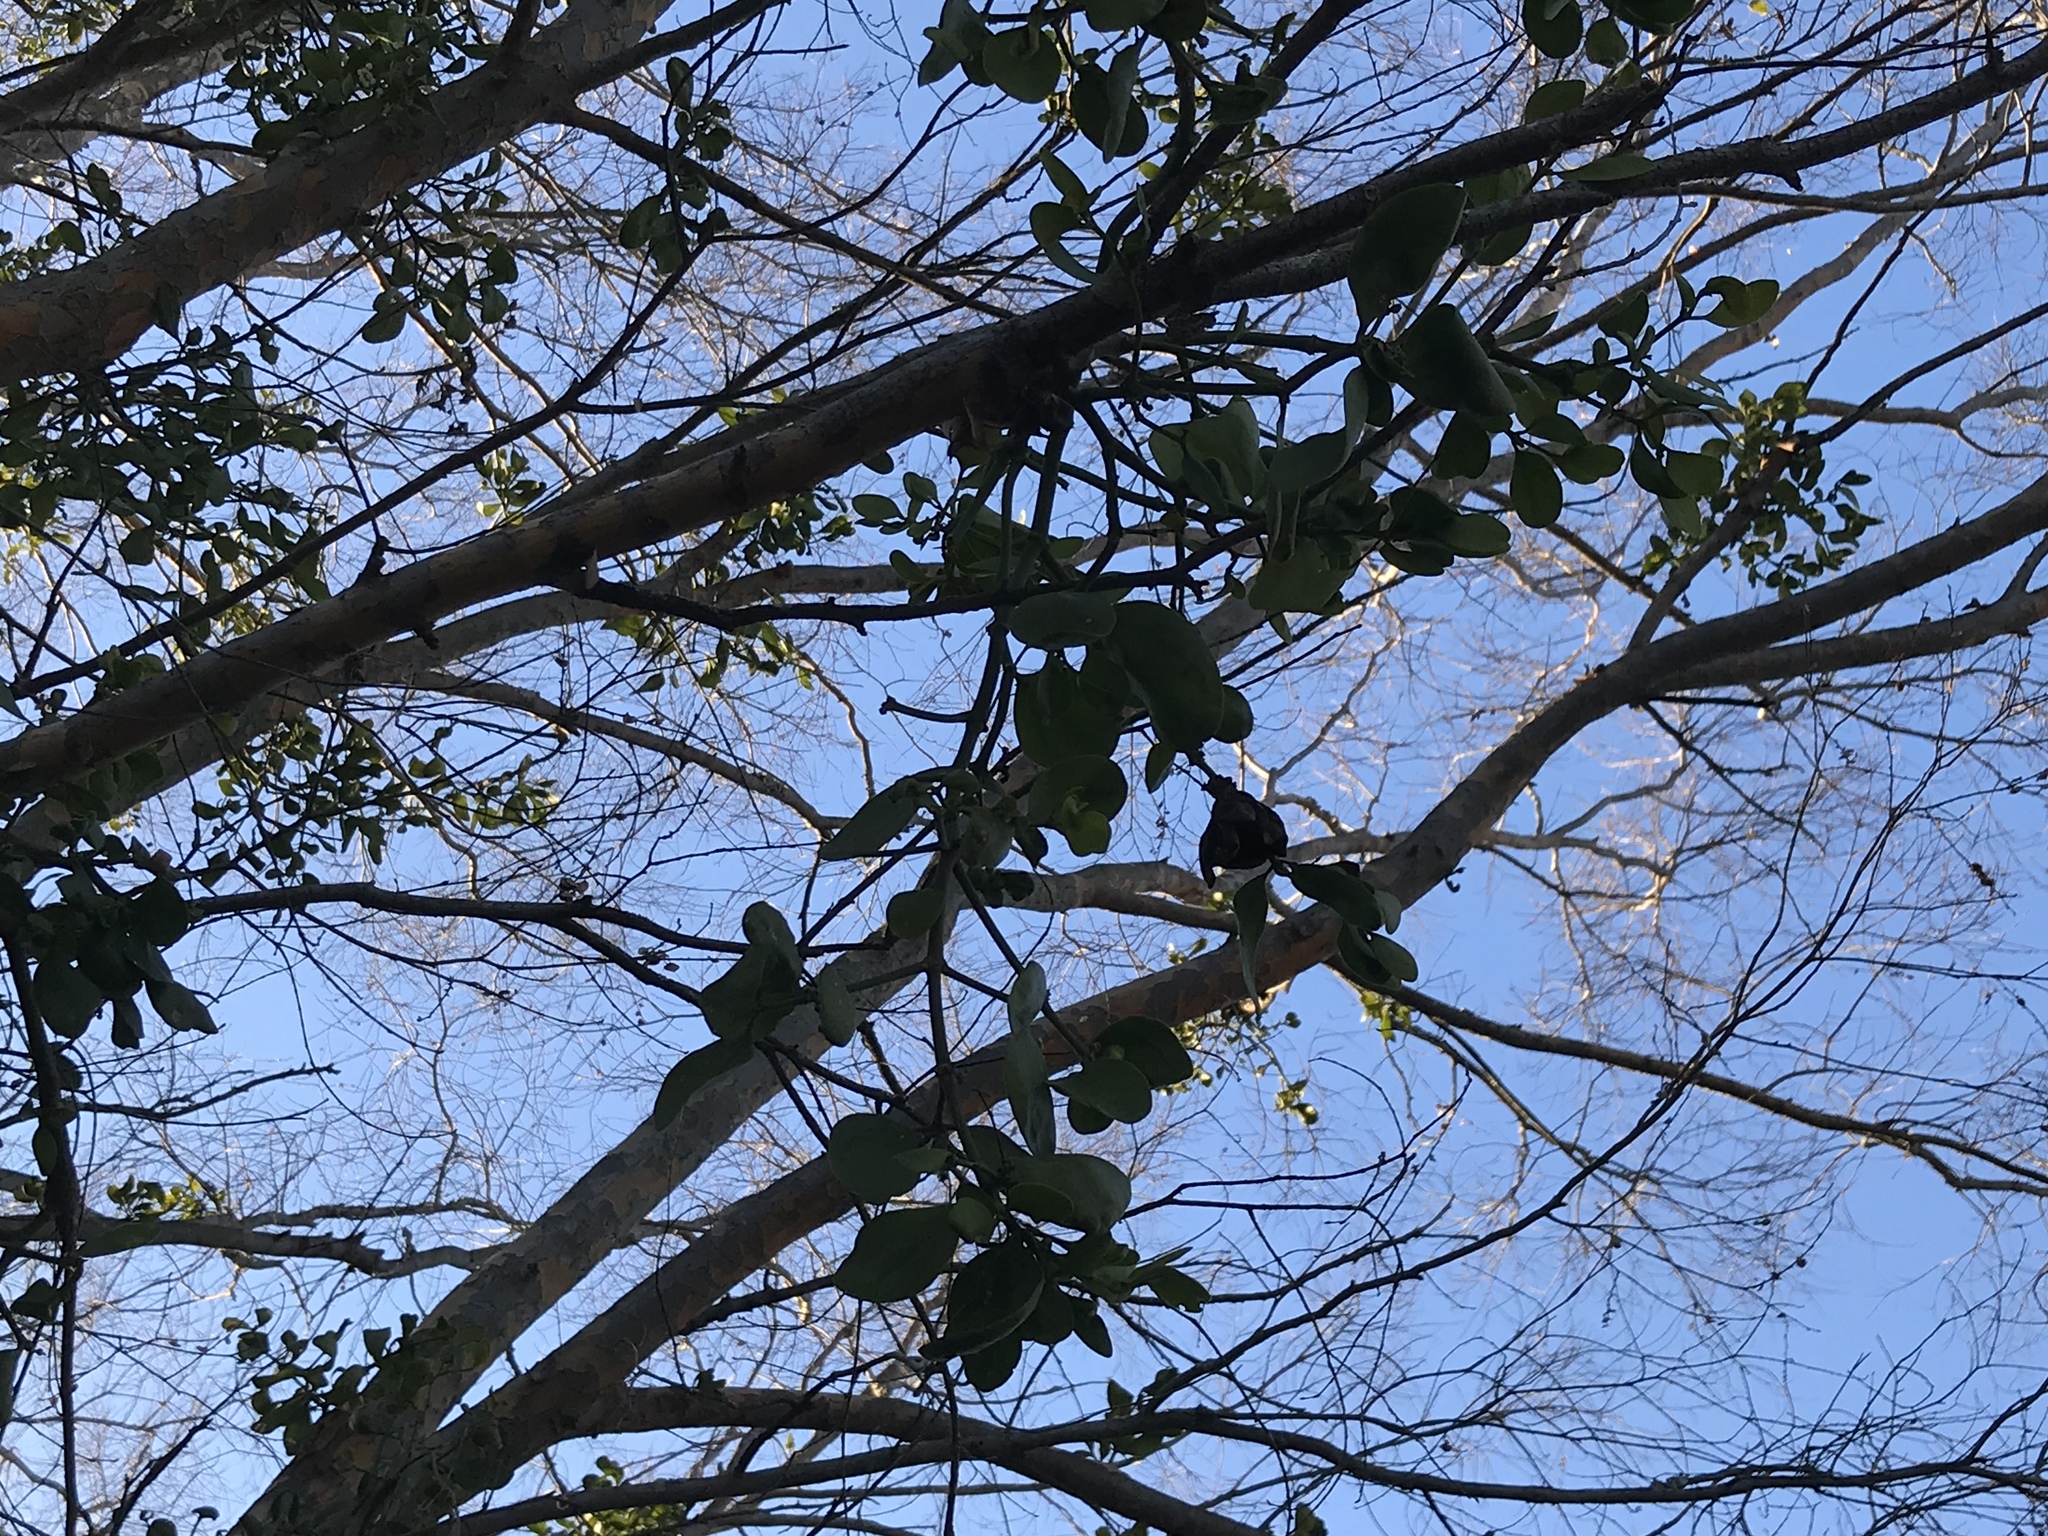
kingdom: Plantae
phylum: Tracheophyta
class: Magnoliopsida
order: Santalales
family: Viscaceae
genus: Phoradendron
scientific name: Phoradendron leucarpum
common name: Pacific mistletoe
